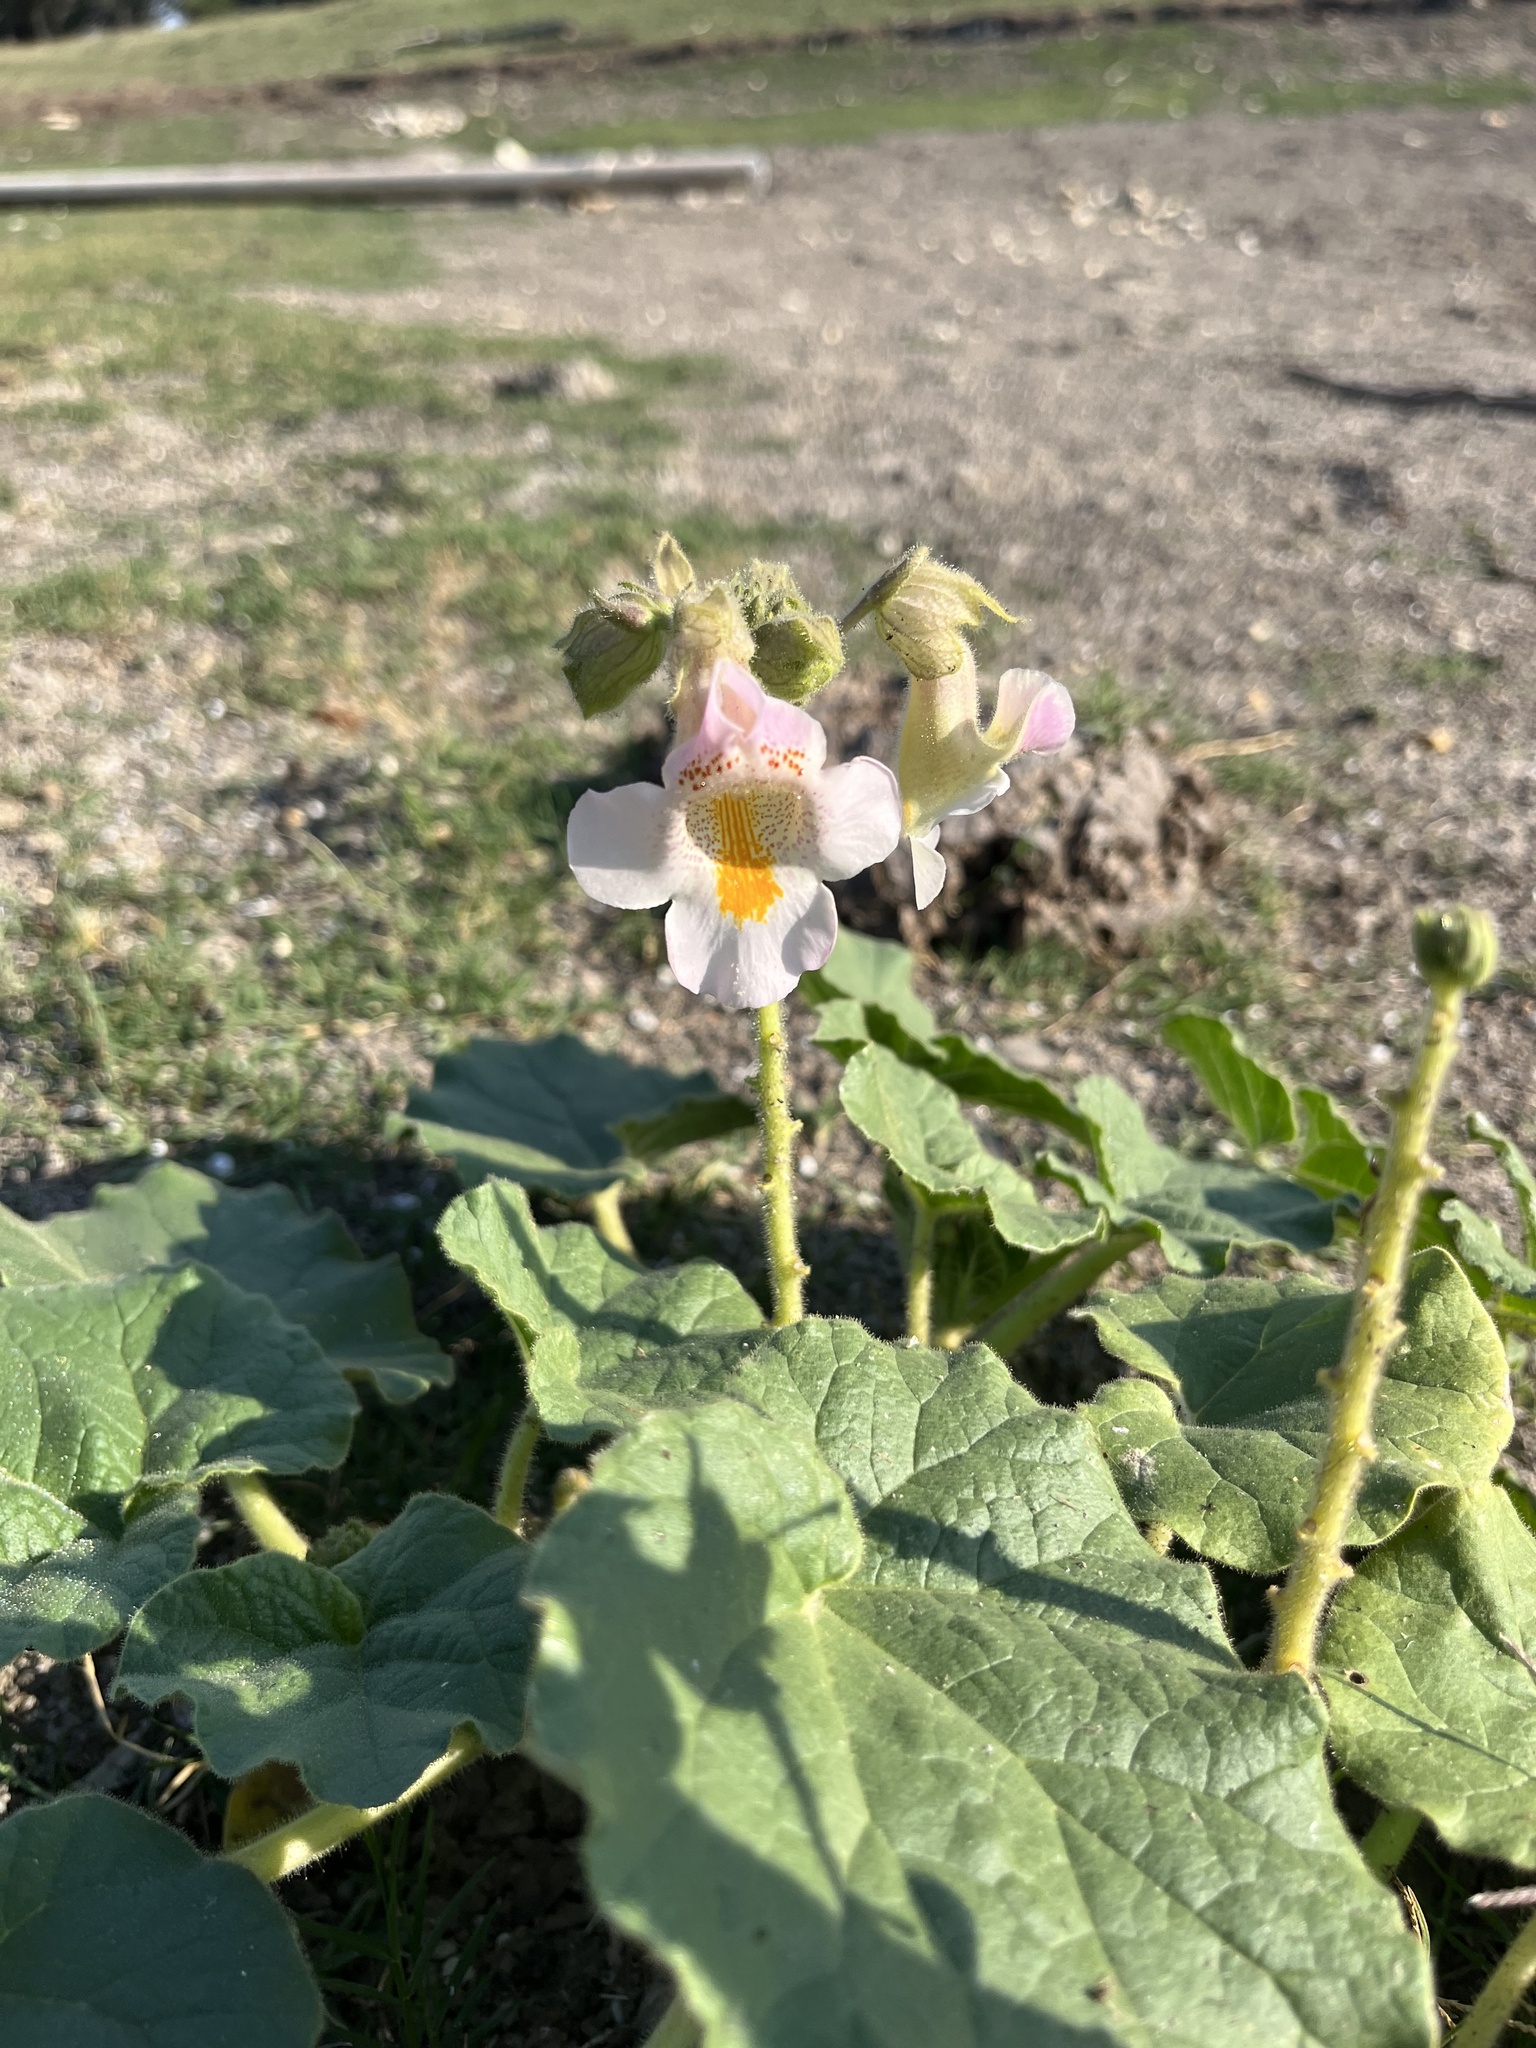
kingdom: Plantae
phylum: Tracheophyta
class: Magnoliopsida
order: Lamiales
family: Martyniaceae
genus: Proboscidea
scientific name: Proboscidea louisianica
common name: Elephant tusks
